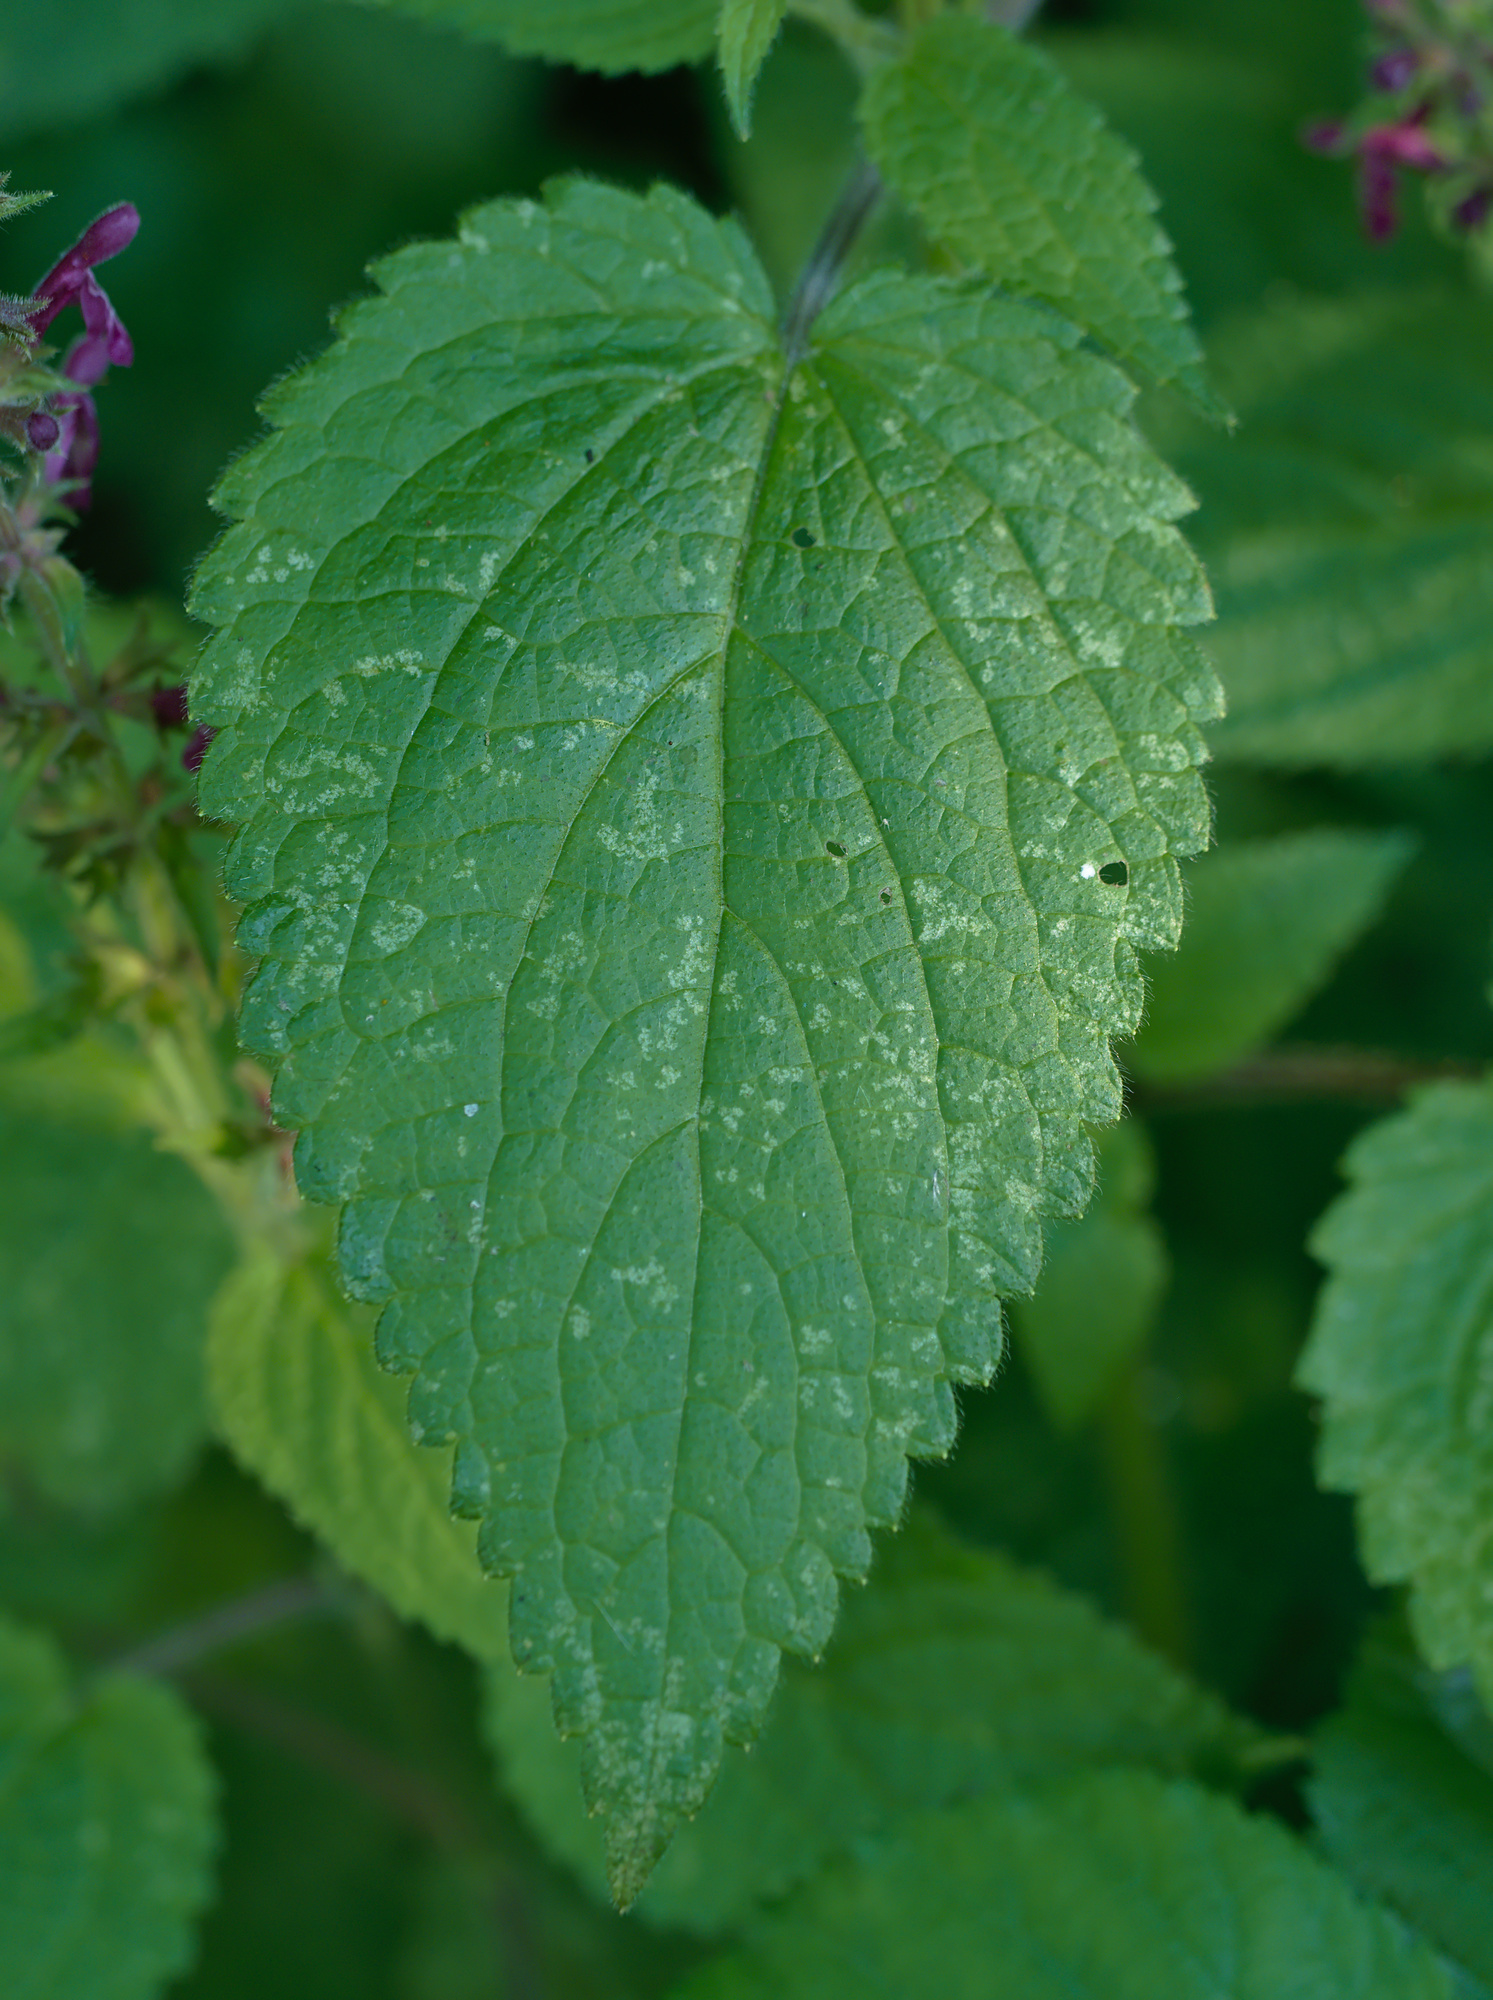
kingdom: Plantae
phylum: Tracheophyta
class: Magnoliopsida
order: Lamiales
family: Lamiaceae
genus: Stachys
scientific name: Stachys sylvatica
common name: Hedge woundwort
